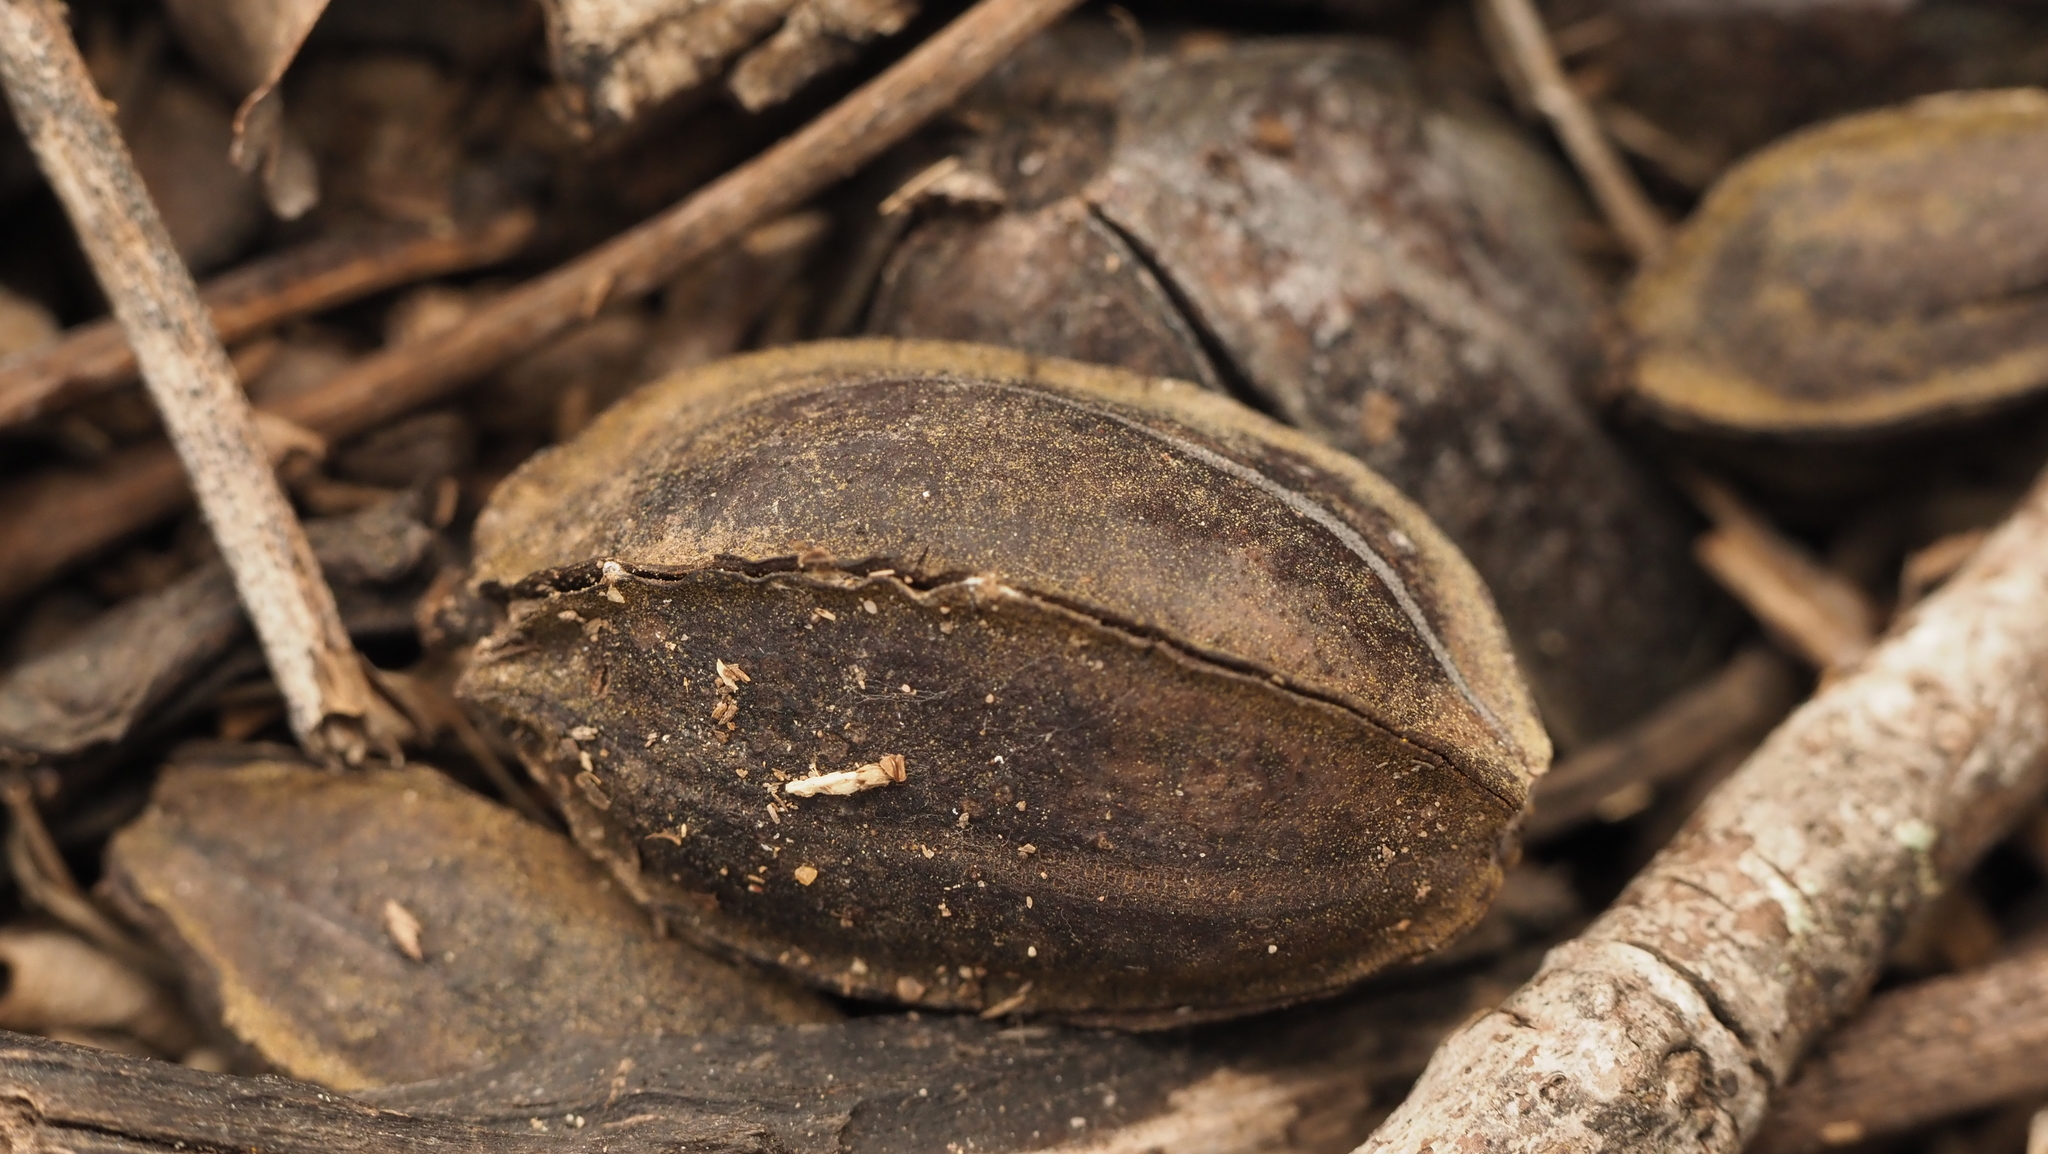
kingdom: Plantae
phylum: Tracheophyta
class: Magnoliopsida
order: Fagales
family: Juglandaceae
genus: Carya
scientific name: Carya illinoinensis
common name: Pecan
